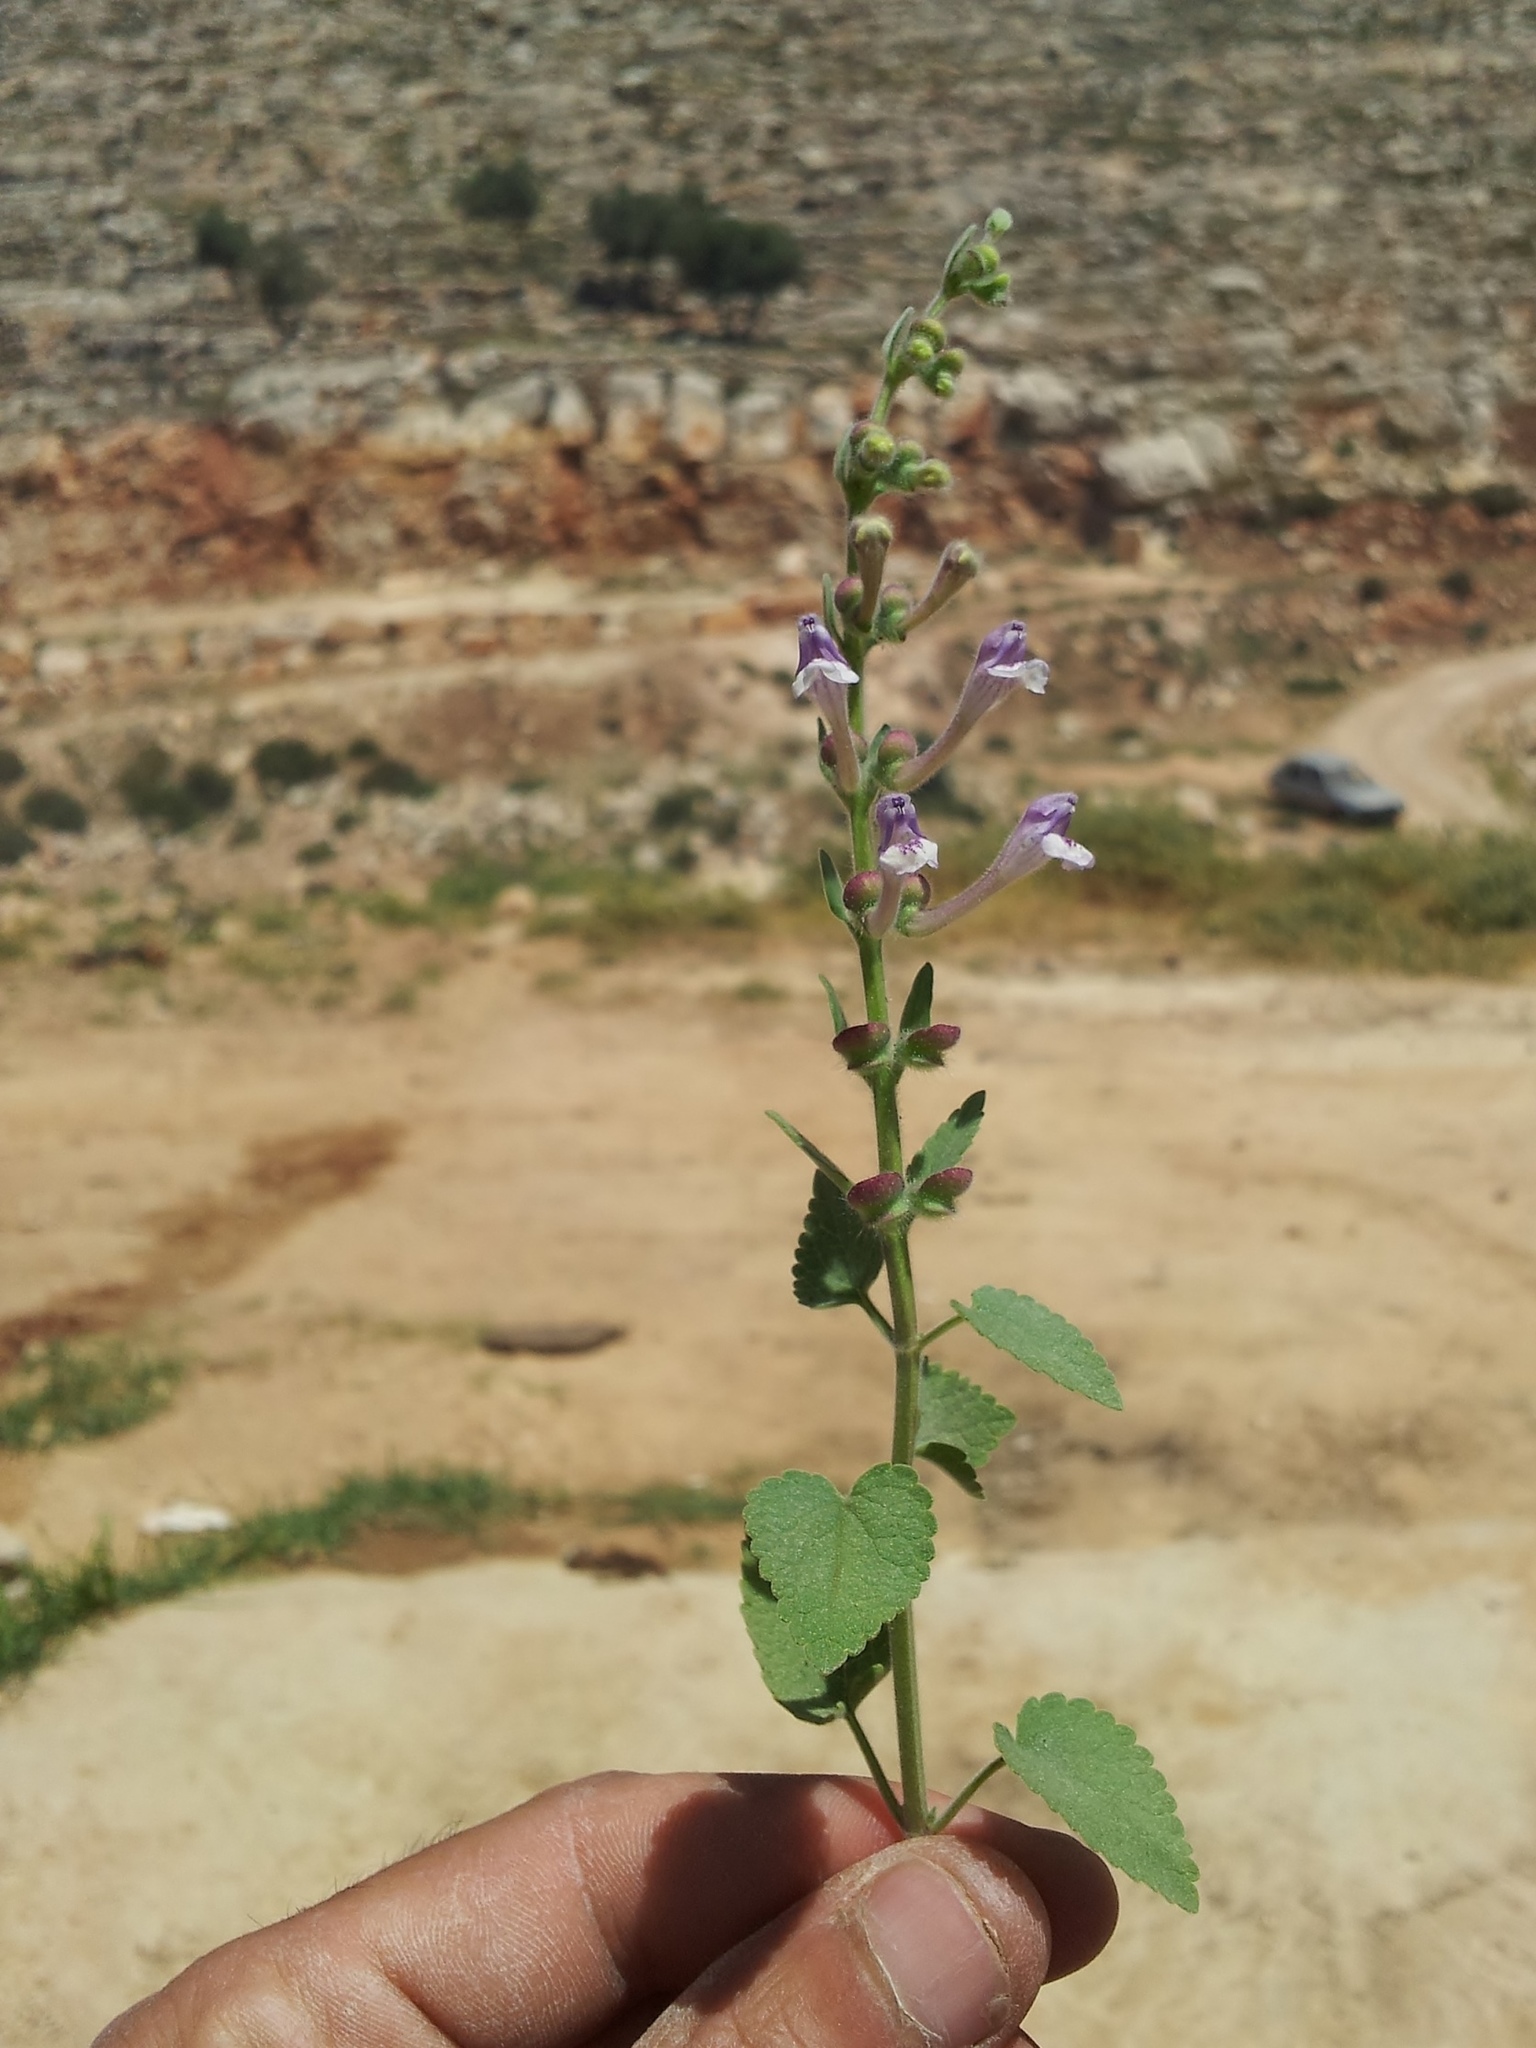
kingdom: Plantae
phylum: Tracheophyta
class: Magnoliopsida
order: Lamiales
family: Lamiaceae
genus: Scutellaria
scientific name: Scutellaria brevibracteata
